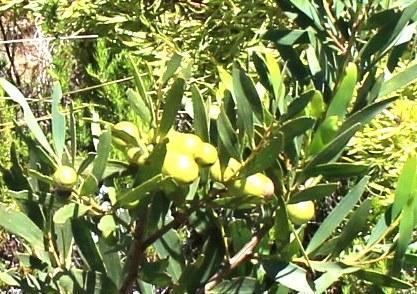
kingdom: Plantae
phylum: Tracheophyta
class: Magnoliopsida
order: Fabales
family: Fabaceae
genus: Acacia
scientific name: Acacia longifolia
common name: Sydney golden wattle
